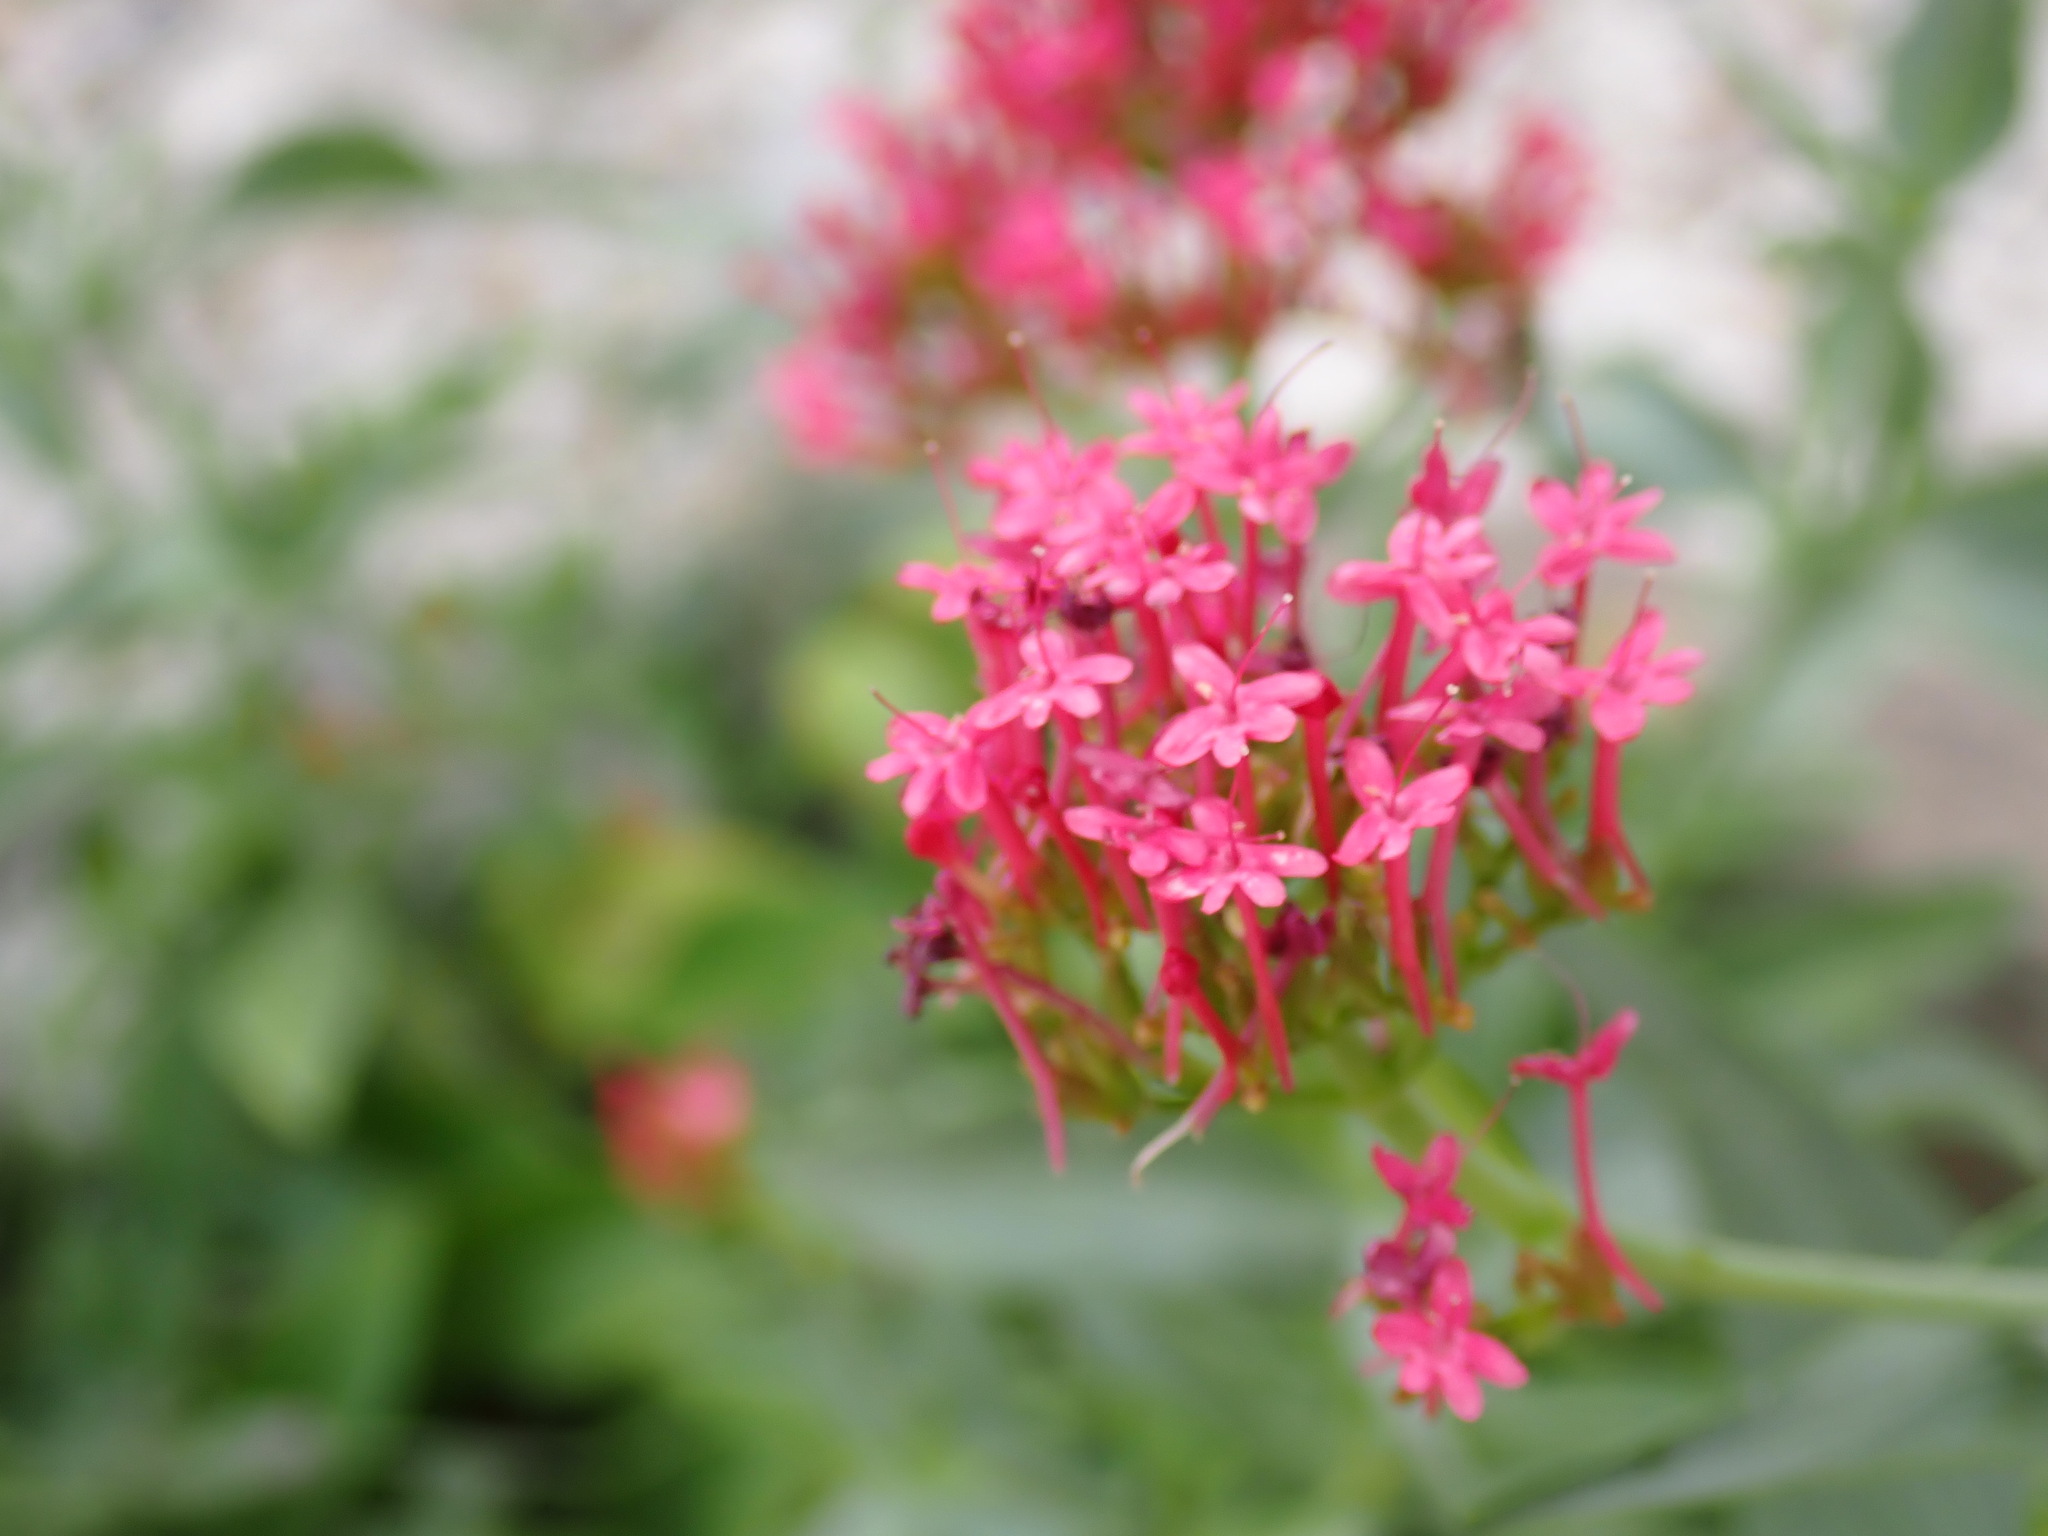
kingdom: Plantae
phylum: Tracheophyta
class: Magnoliopsida
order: Dipsacales
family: Caprifoliaceae
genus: Centranthus
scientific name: Centranthus ruber
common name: Red valerian
